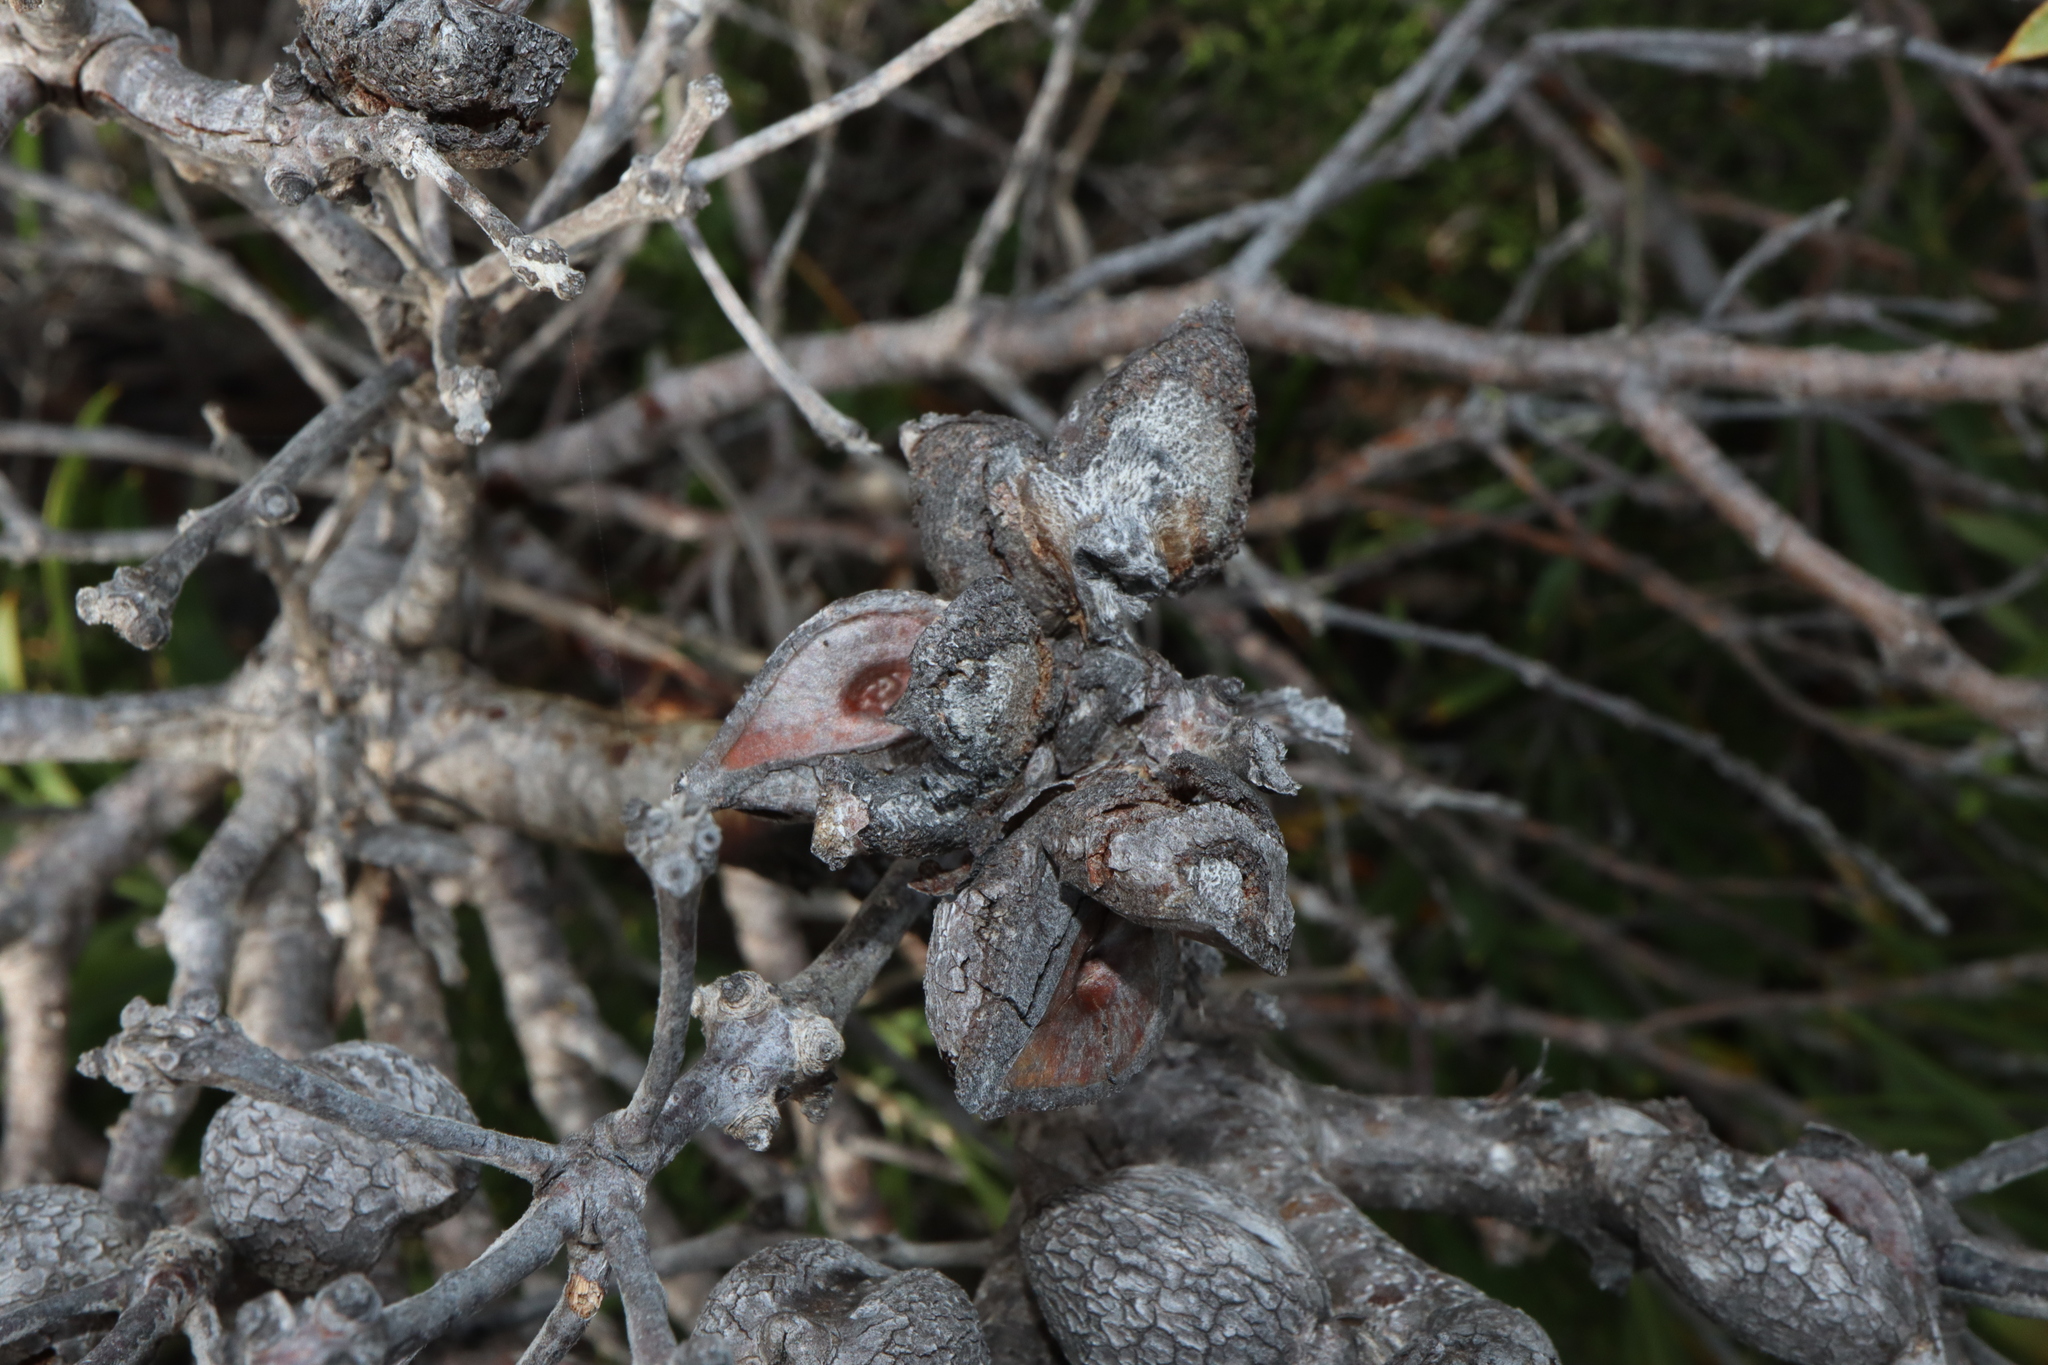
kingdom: Plantae
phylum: Tracheophyta
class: Magnoliopsida
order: Proteales
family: Proteaceae
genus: Hakea
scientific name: Hakea corymbosa
